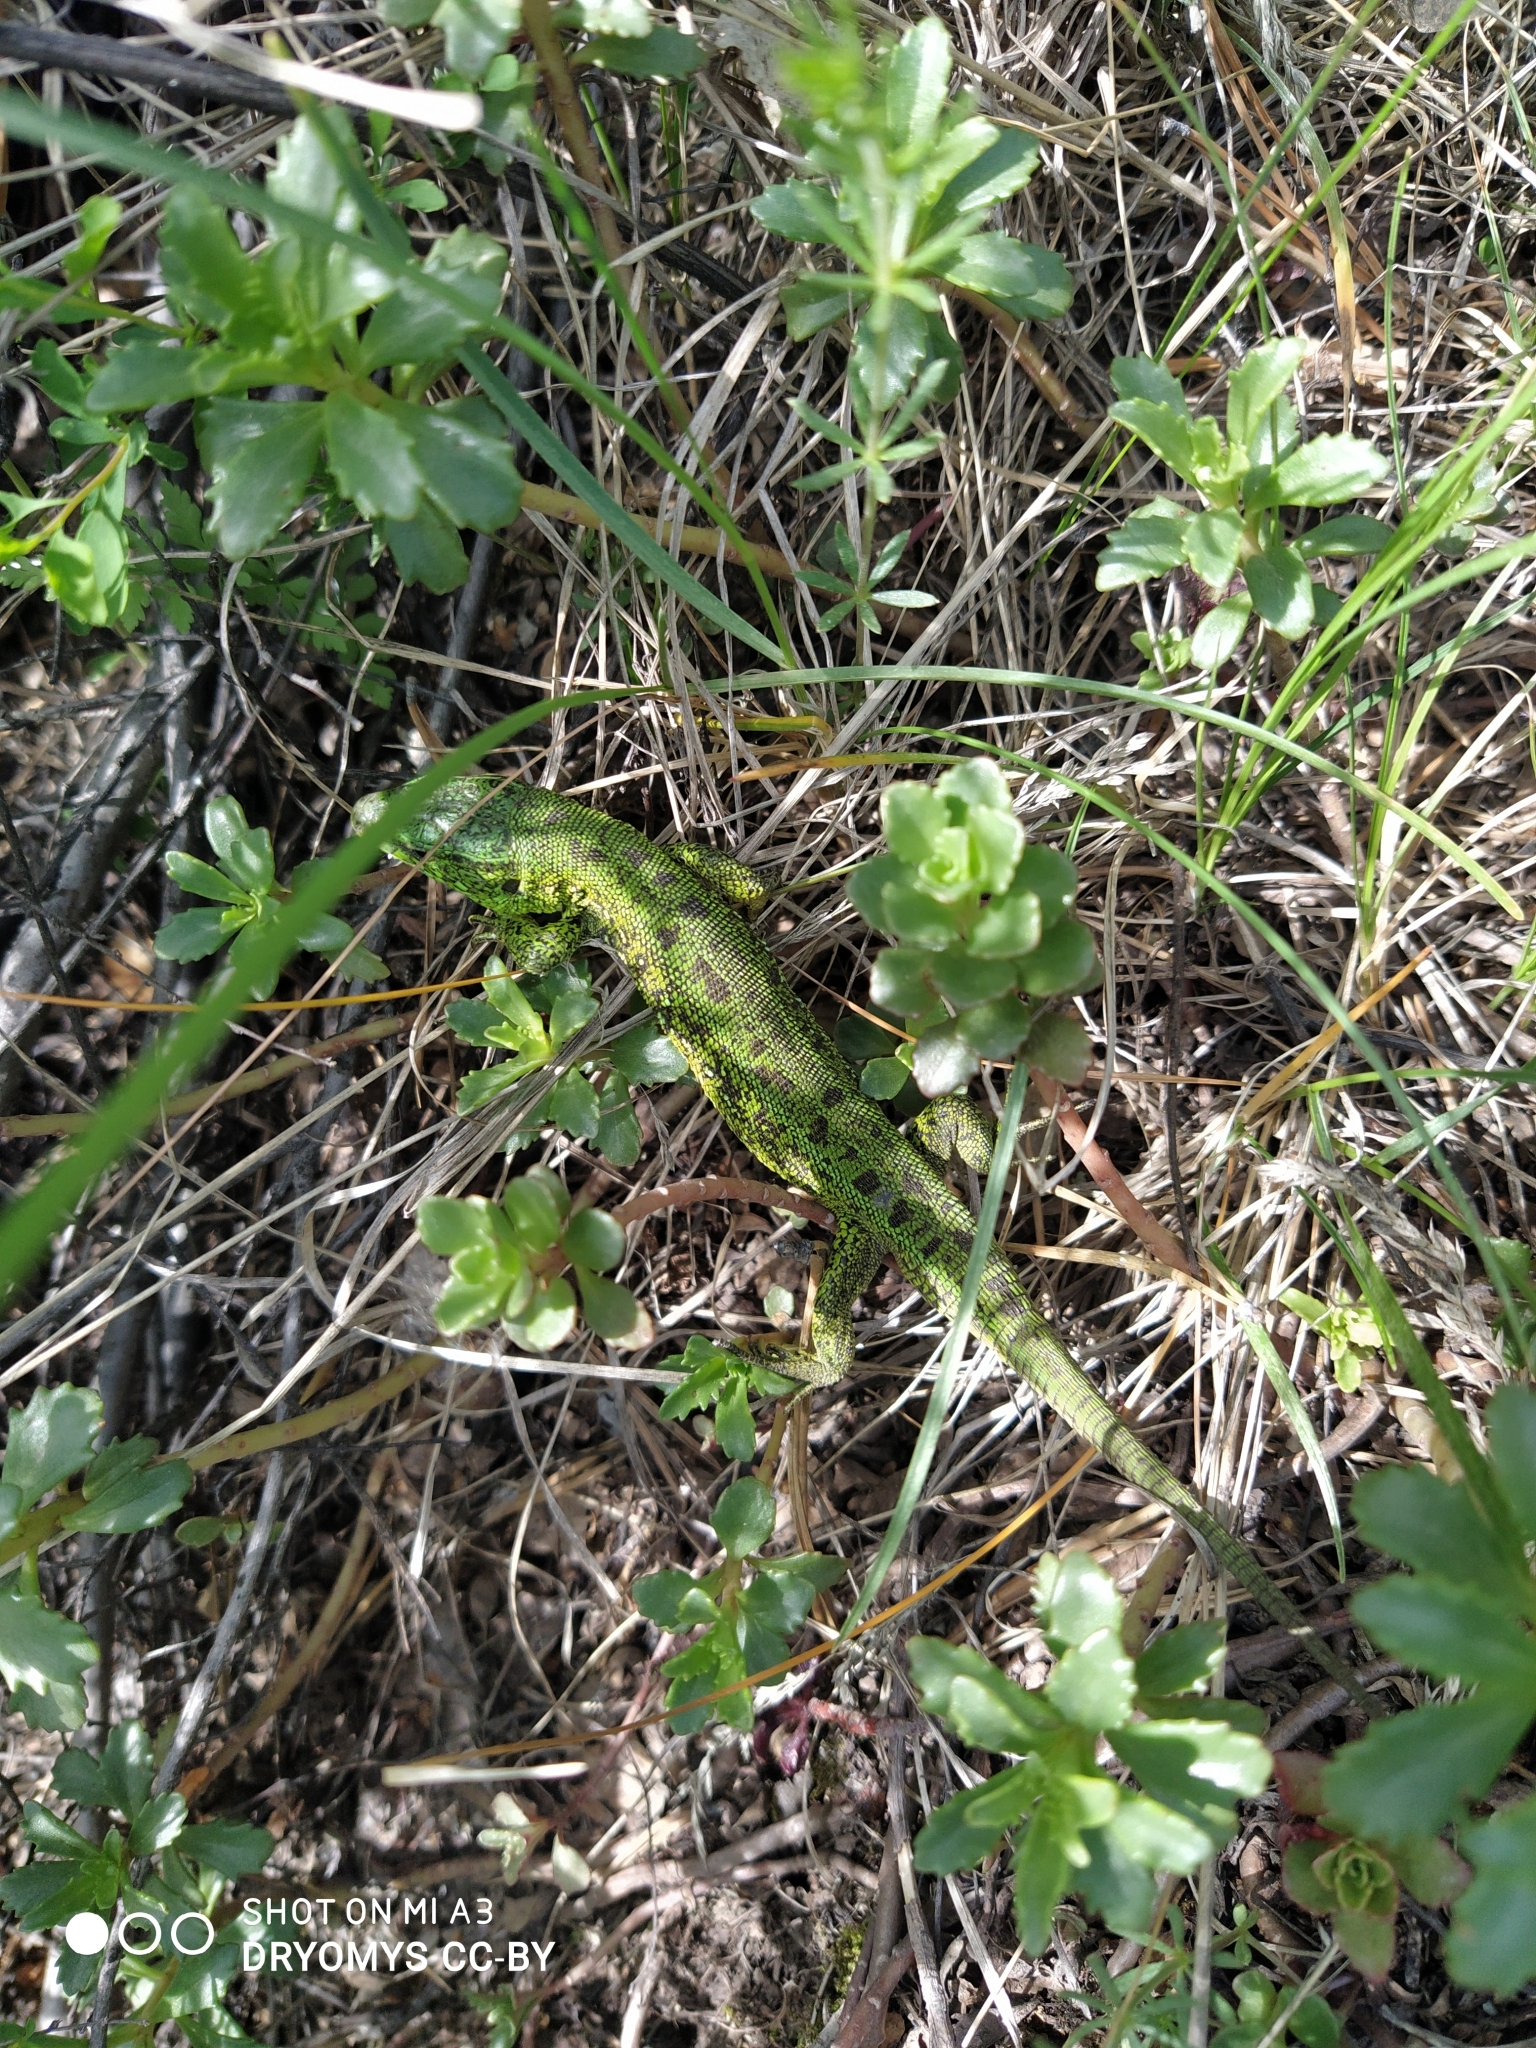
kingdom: Animalia
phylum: Chordata
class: Squamata
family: Lacertidae
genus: Lacerta
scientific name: Lacerta agilis
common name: Sand lizard
